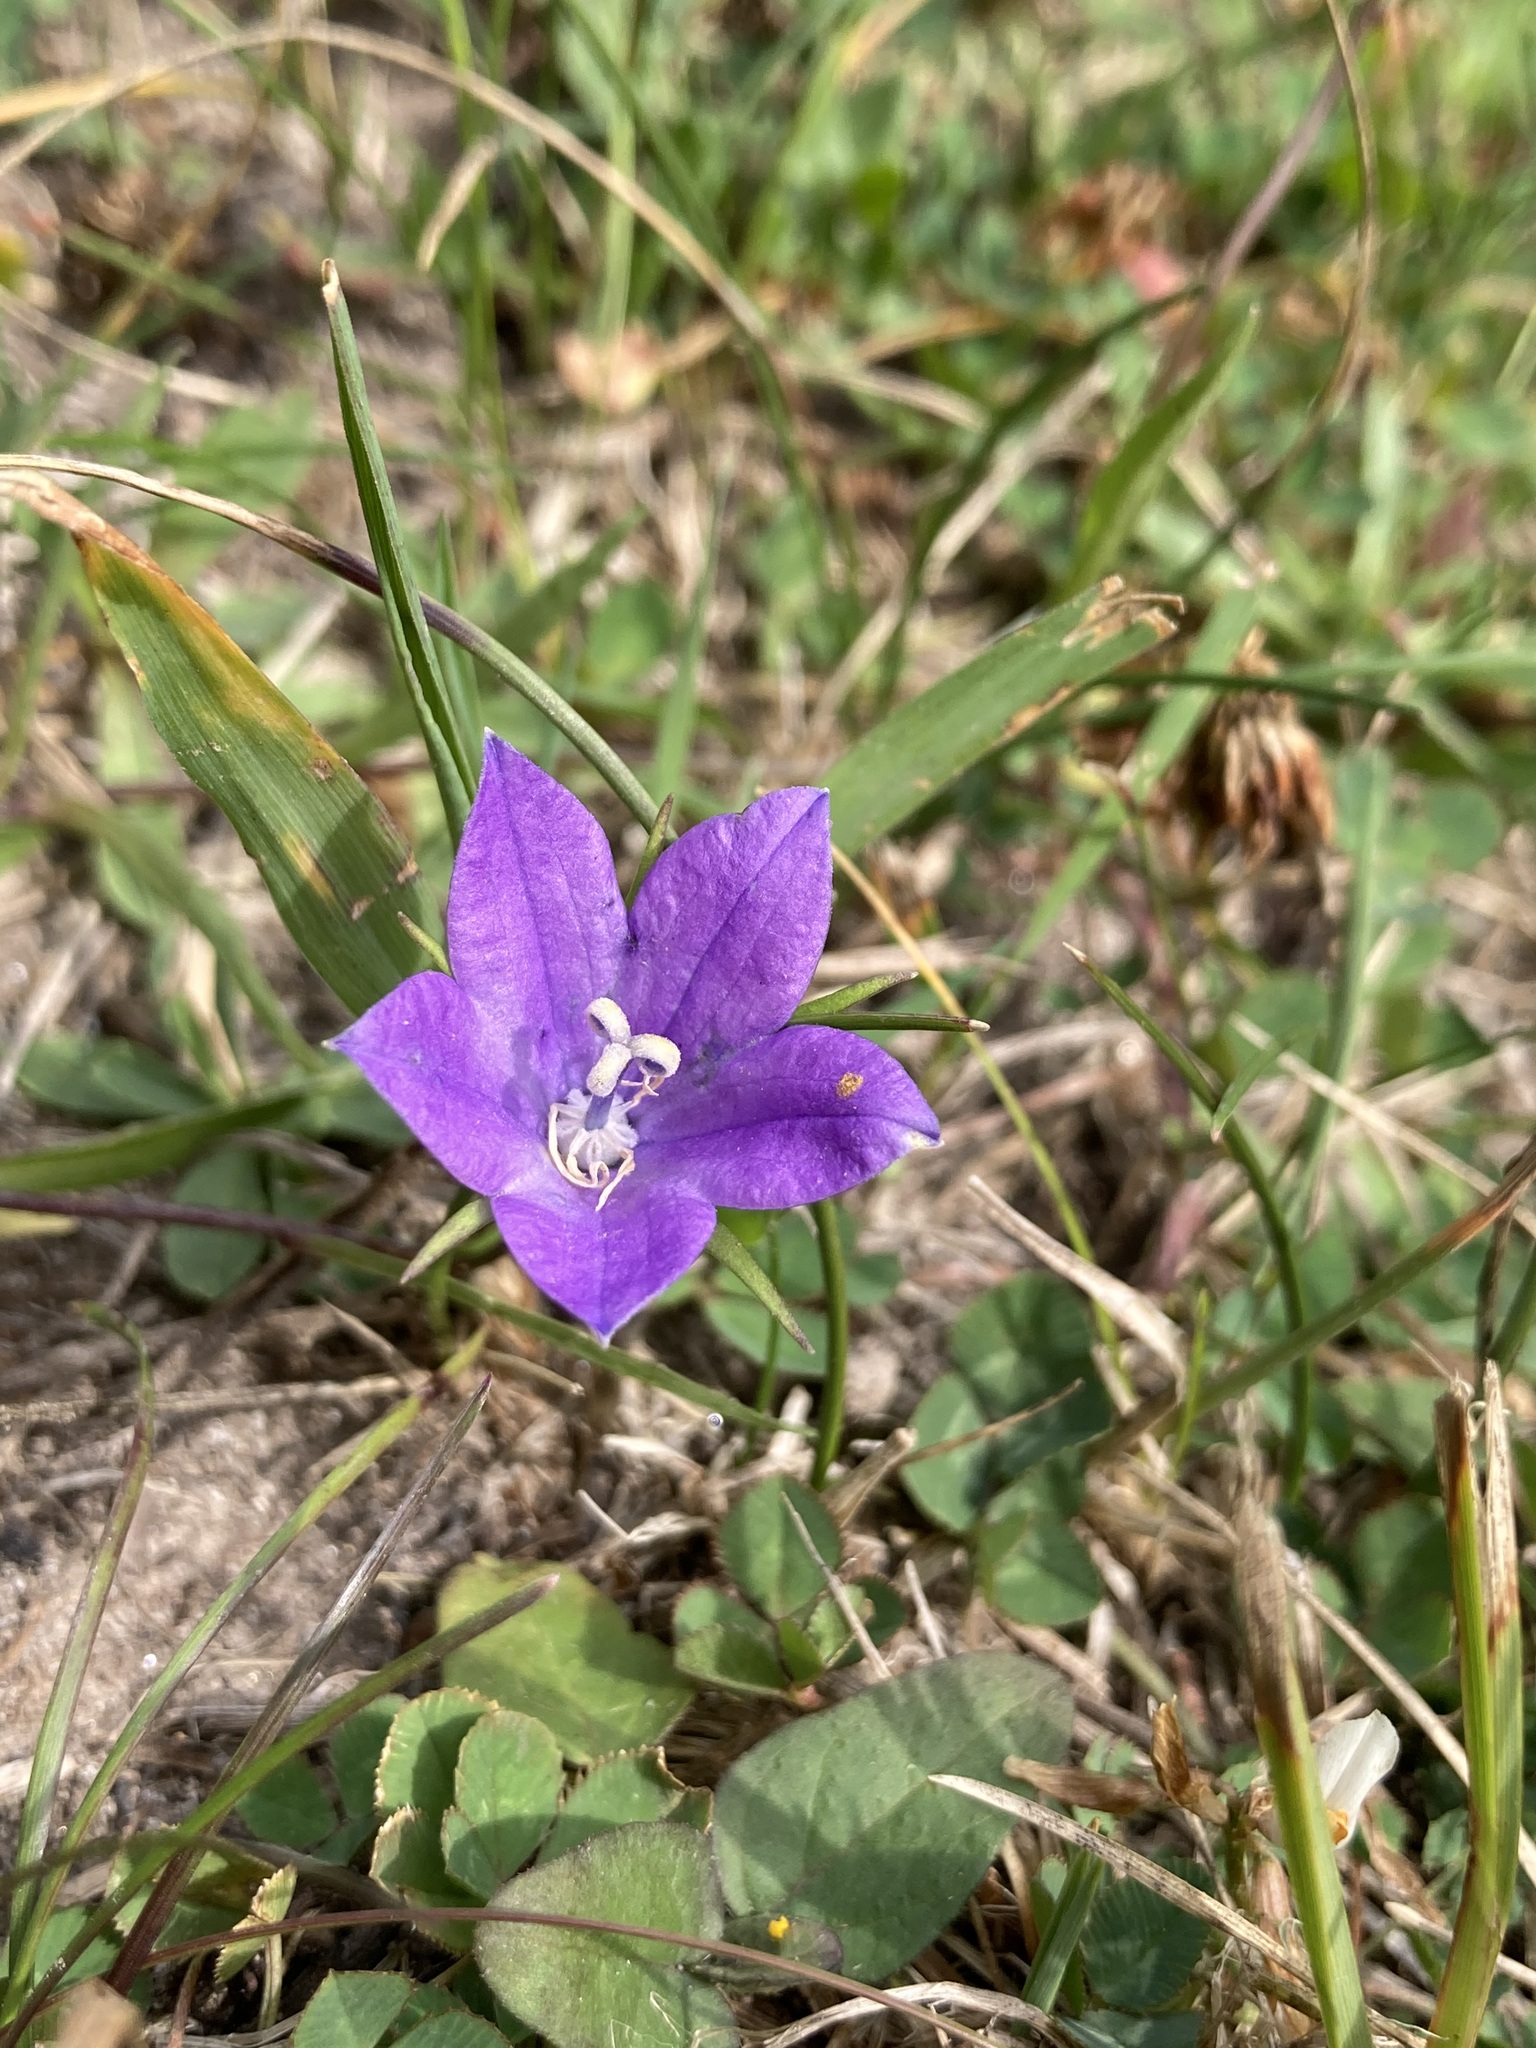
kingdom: Plantae
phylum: Tracheophyta
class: Magnoliopsida
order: Asterales
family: Campanulaceae
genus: Campanula
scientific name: Campanula parryi
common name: Rocky mountain bellflower
